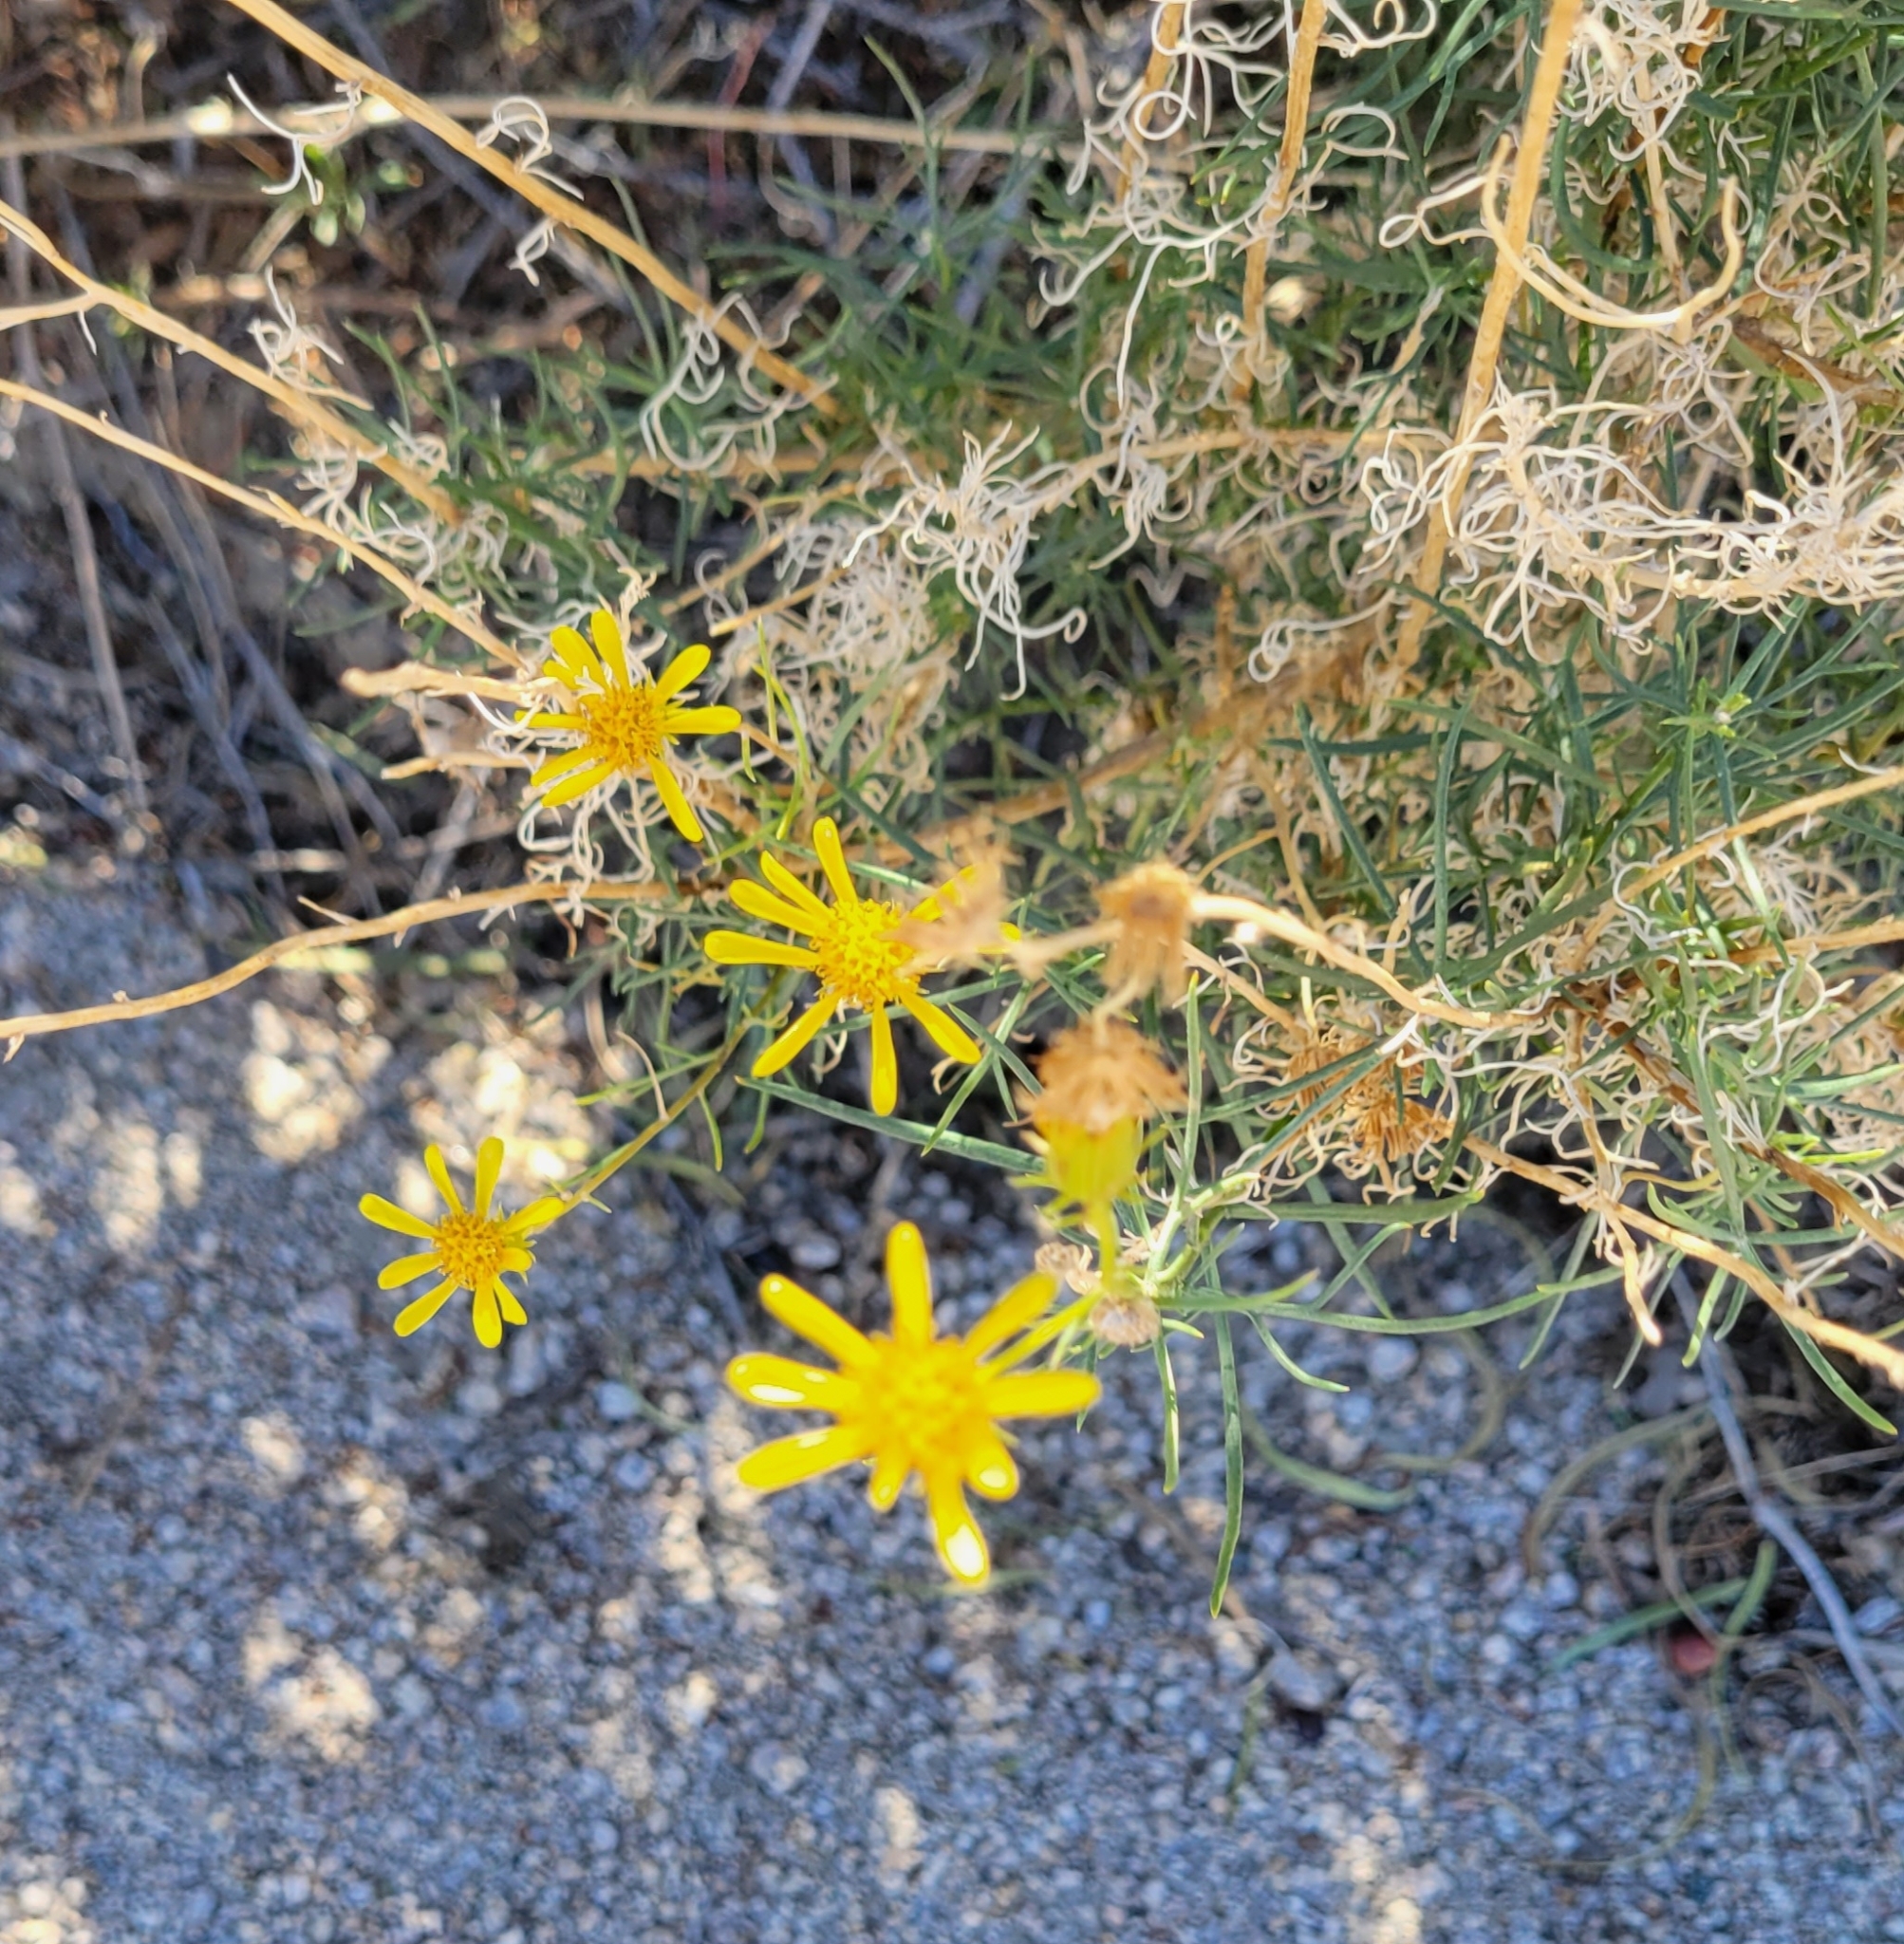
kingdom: Plantae
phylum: Tracheophyta
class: Magnoliopsida
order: Asterales
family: Asteraceae
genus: Senecio
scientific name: Senecio flaccidus
